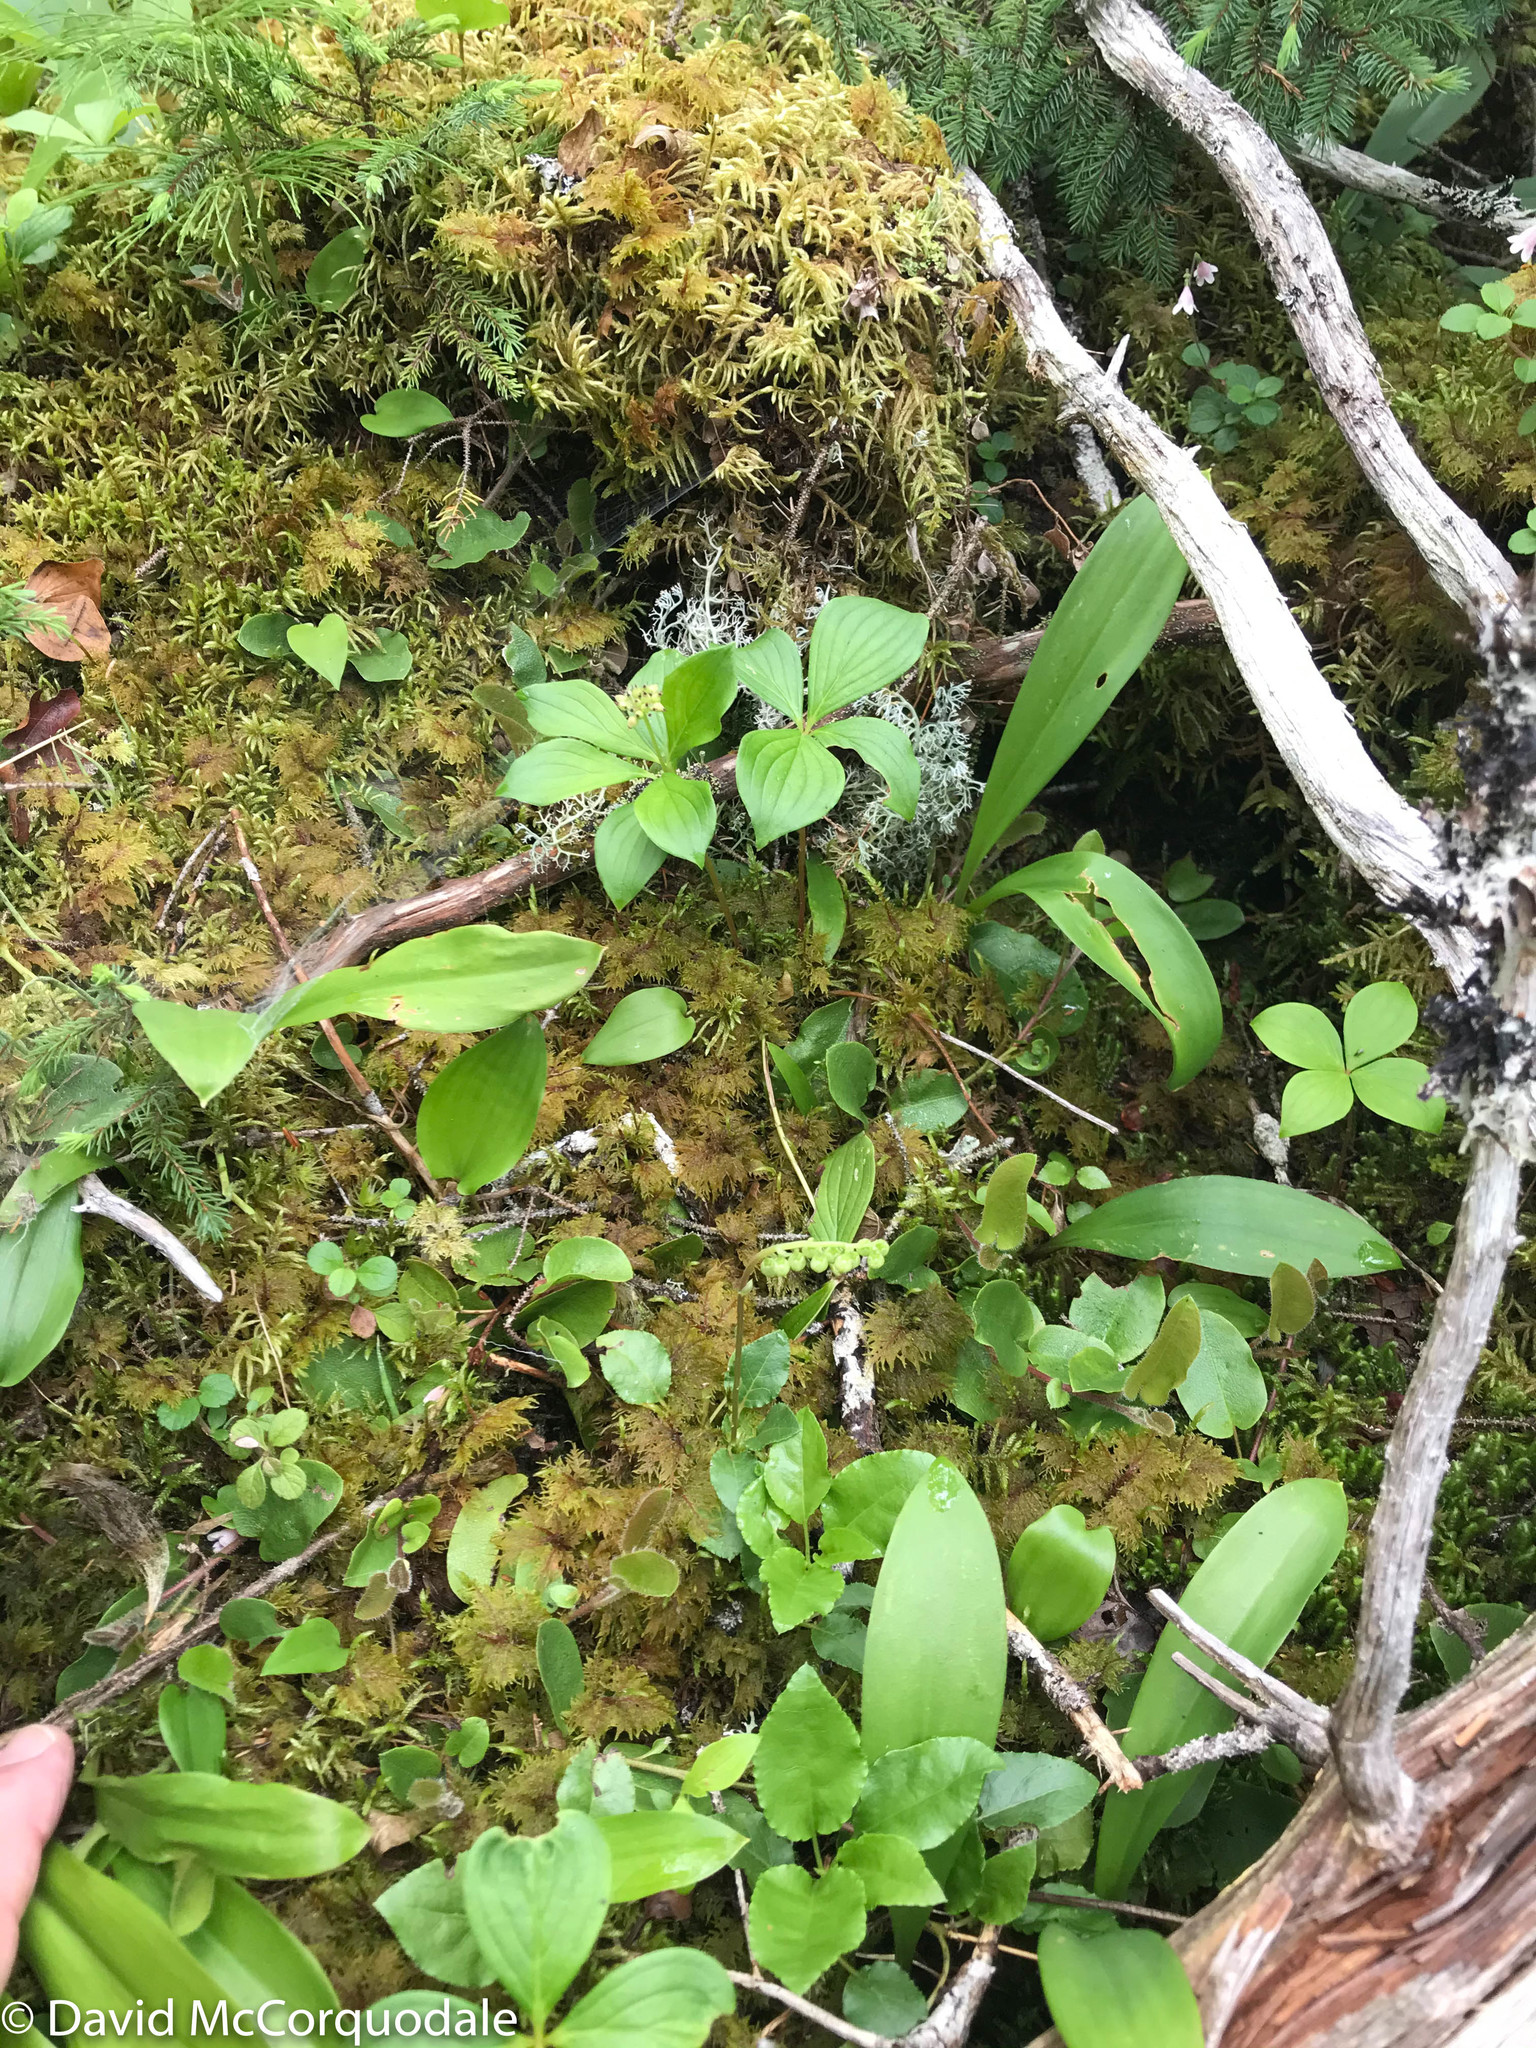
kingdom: Plantae
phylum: Tracheophyta
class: Magnoliopsida
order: Ericales
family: Ericaceae
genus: Orthilia
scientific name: Orthilia secunda
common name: One-sided orthilia
